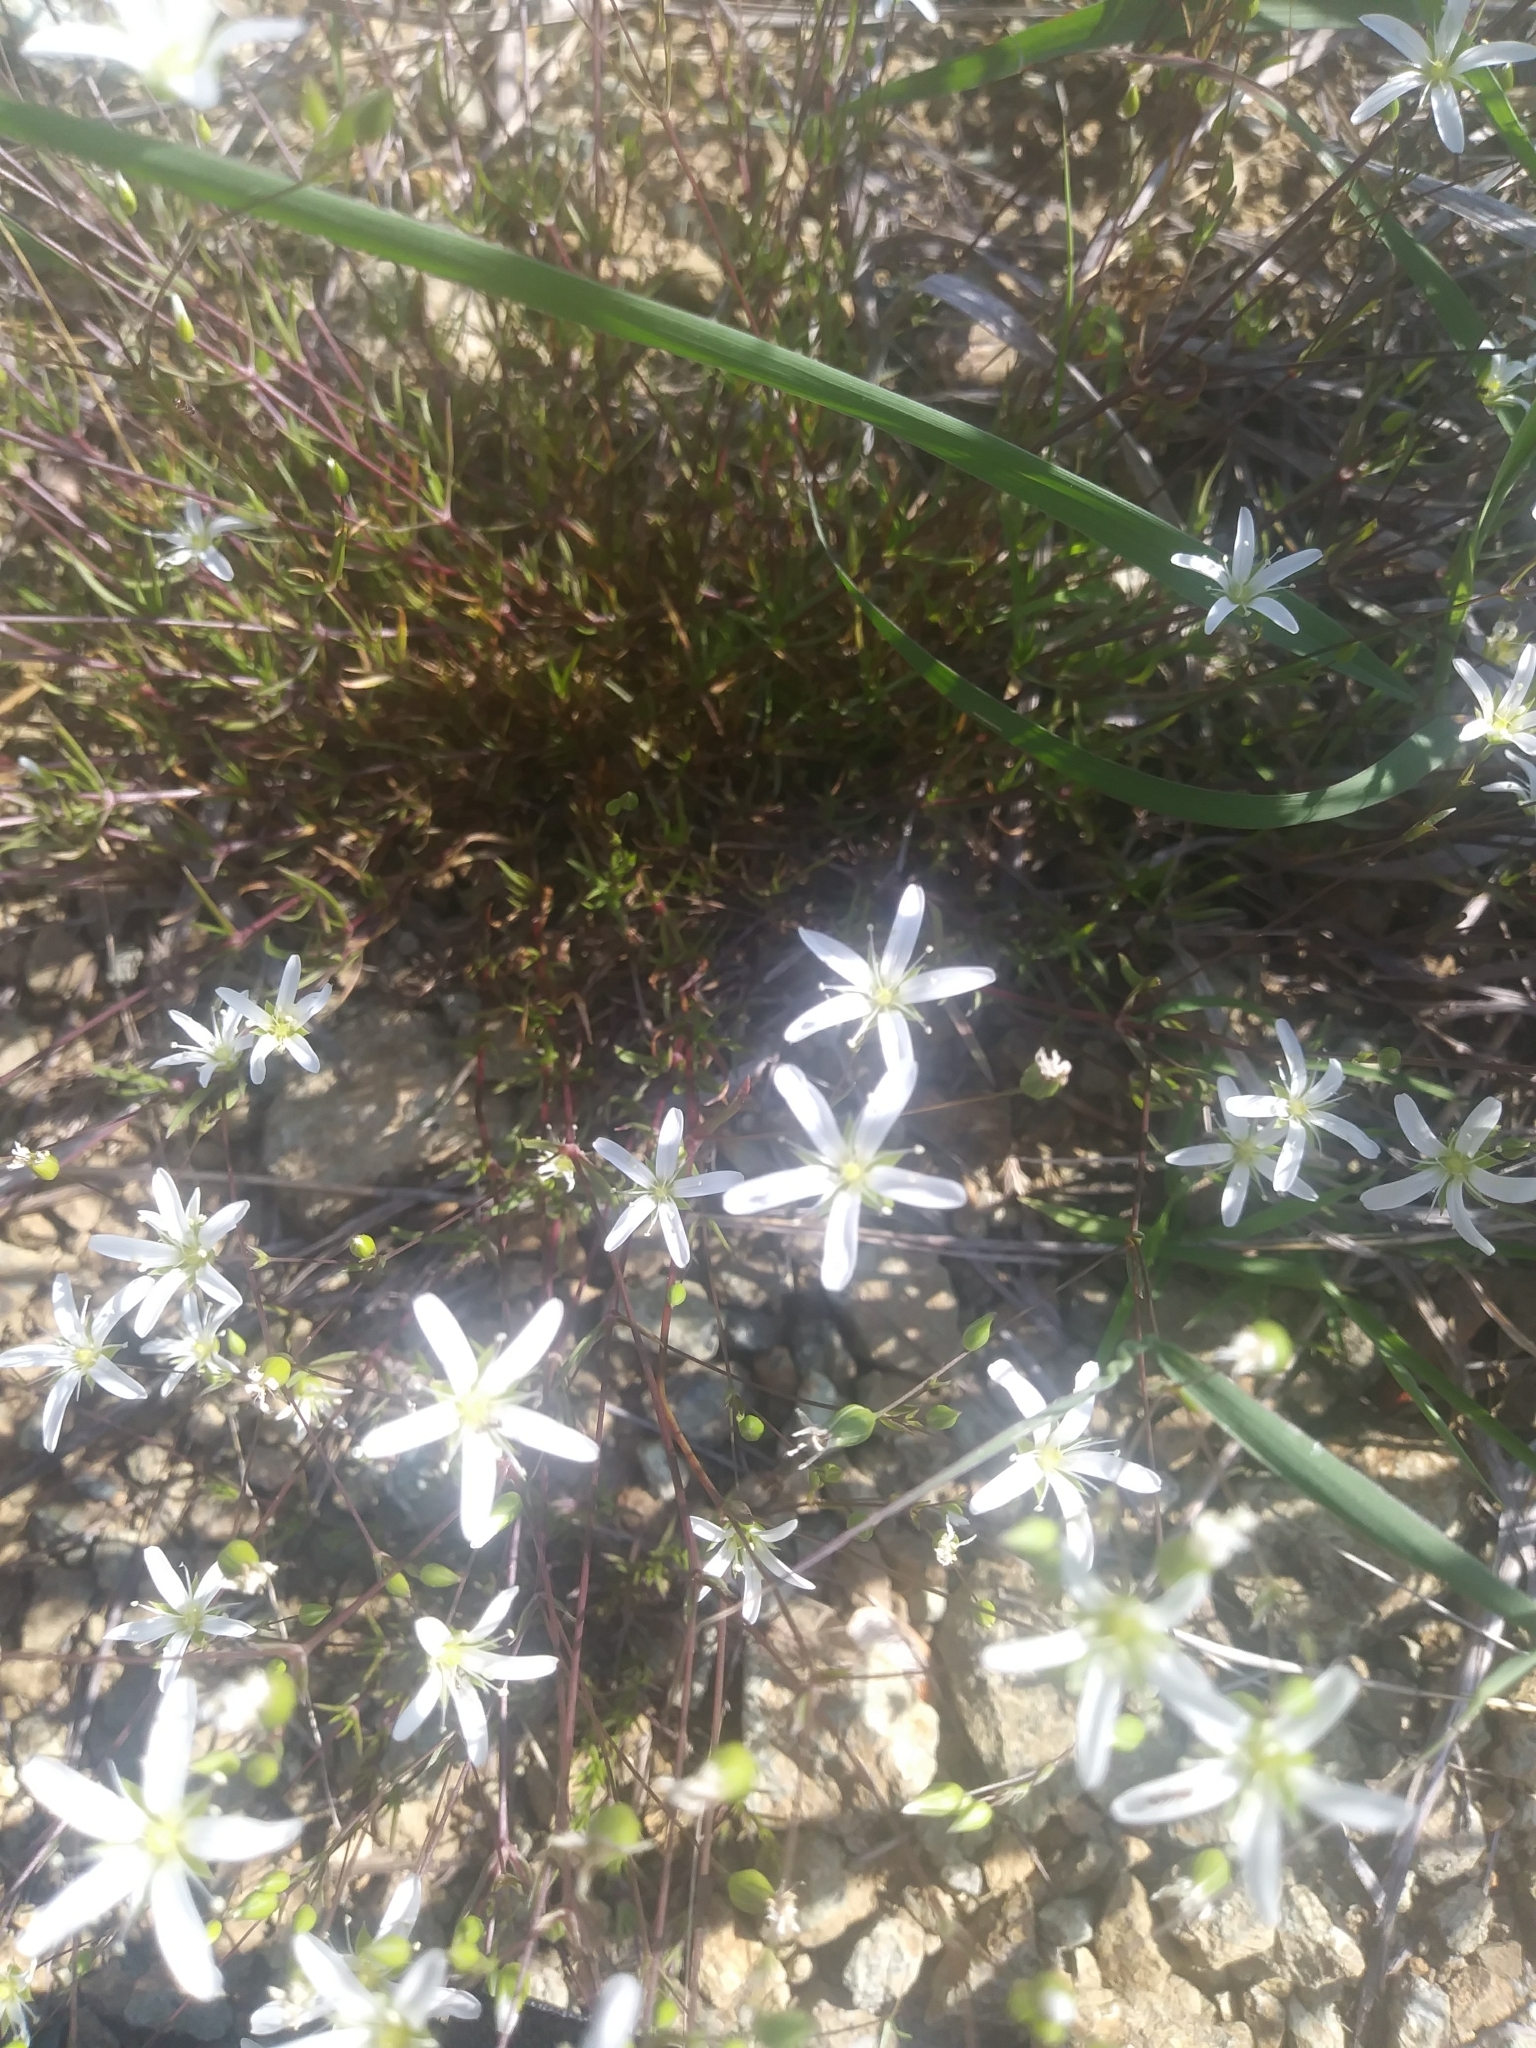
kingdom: Plantae
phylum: Tracheophyta
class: Magnoliopsida
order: Caryophyllales
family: Caryophyllaceae
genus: Sabulina
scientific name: Sabulina michauxii
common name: Michaux's stitchwort
